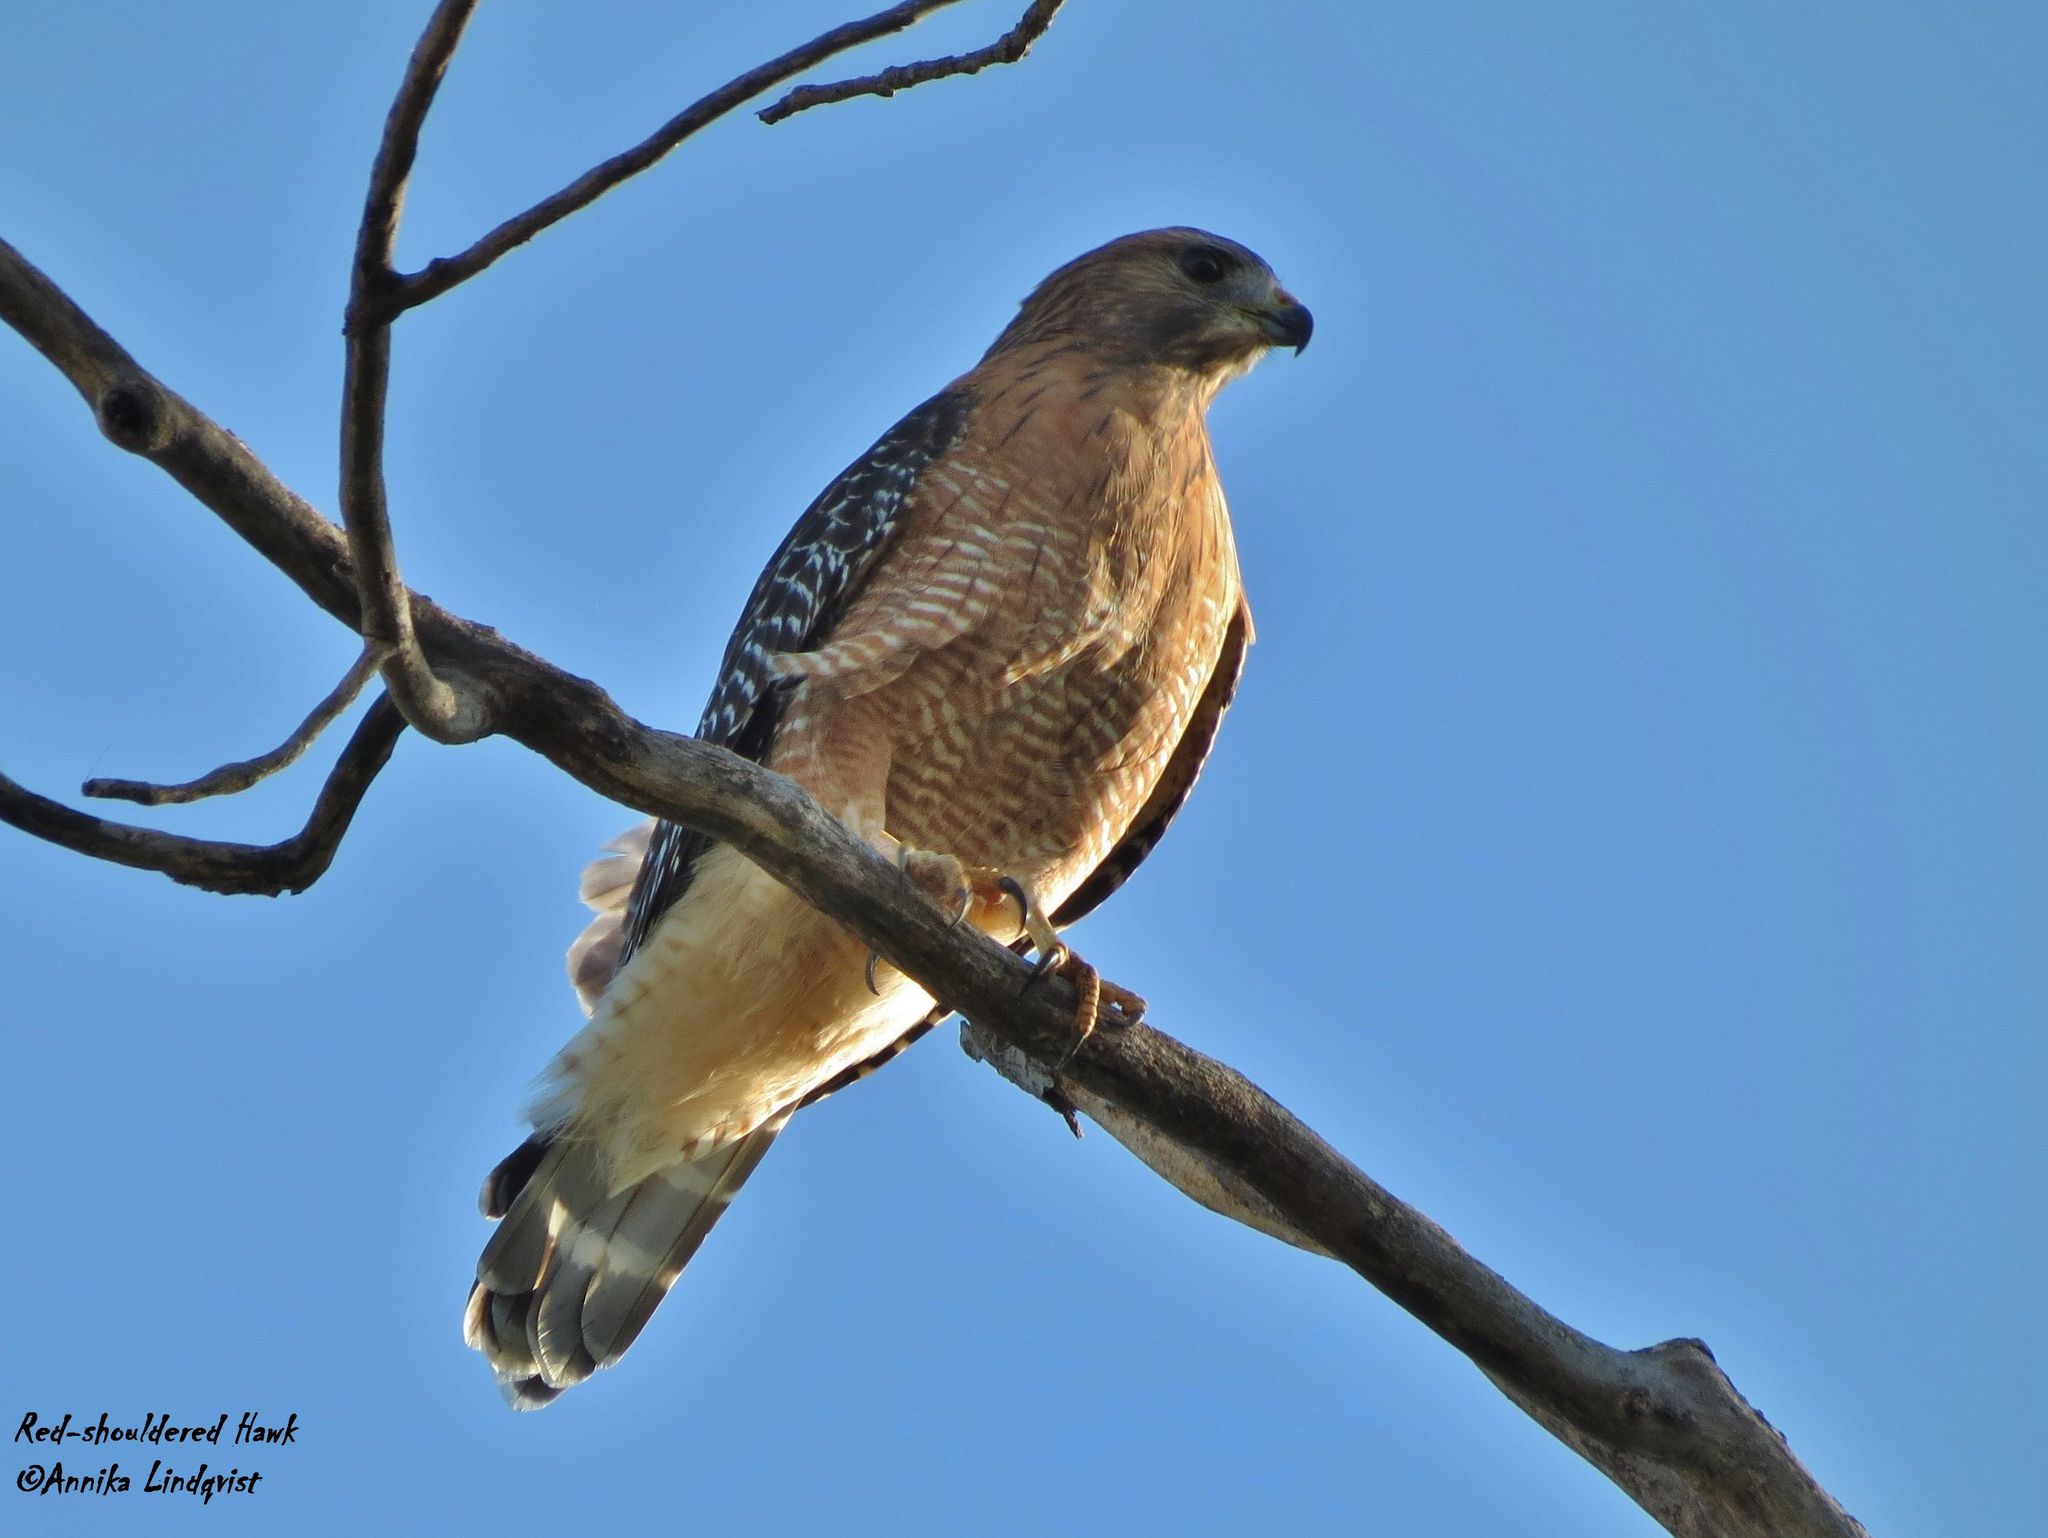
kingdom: Animalia
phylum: Chordata
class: Aves
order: Accipitriformes
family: Accipitridae
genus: Buteo
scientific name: Buteo lineatus
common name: Red-shouldered hawk
